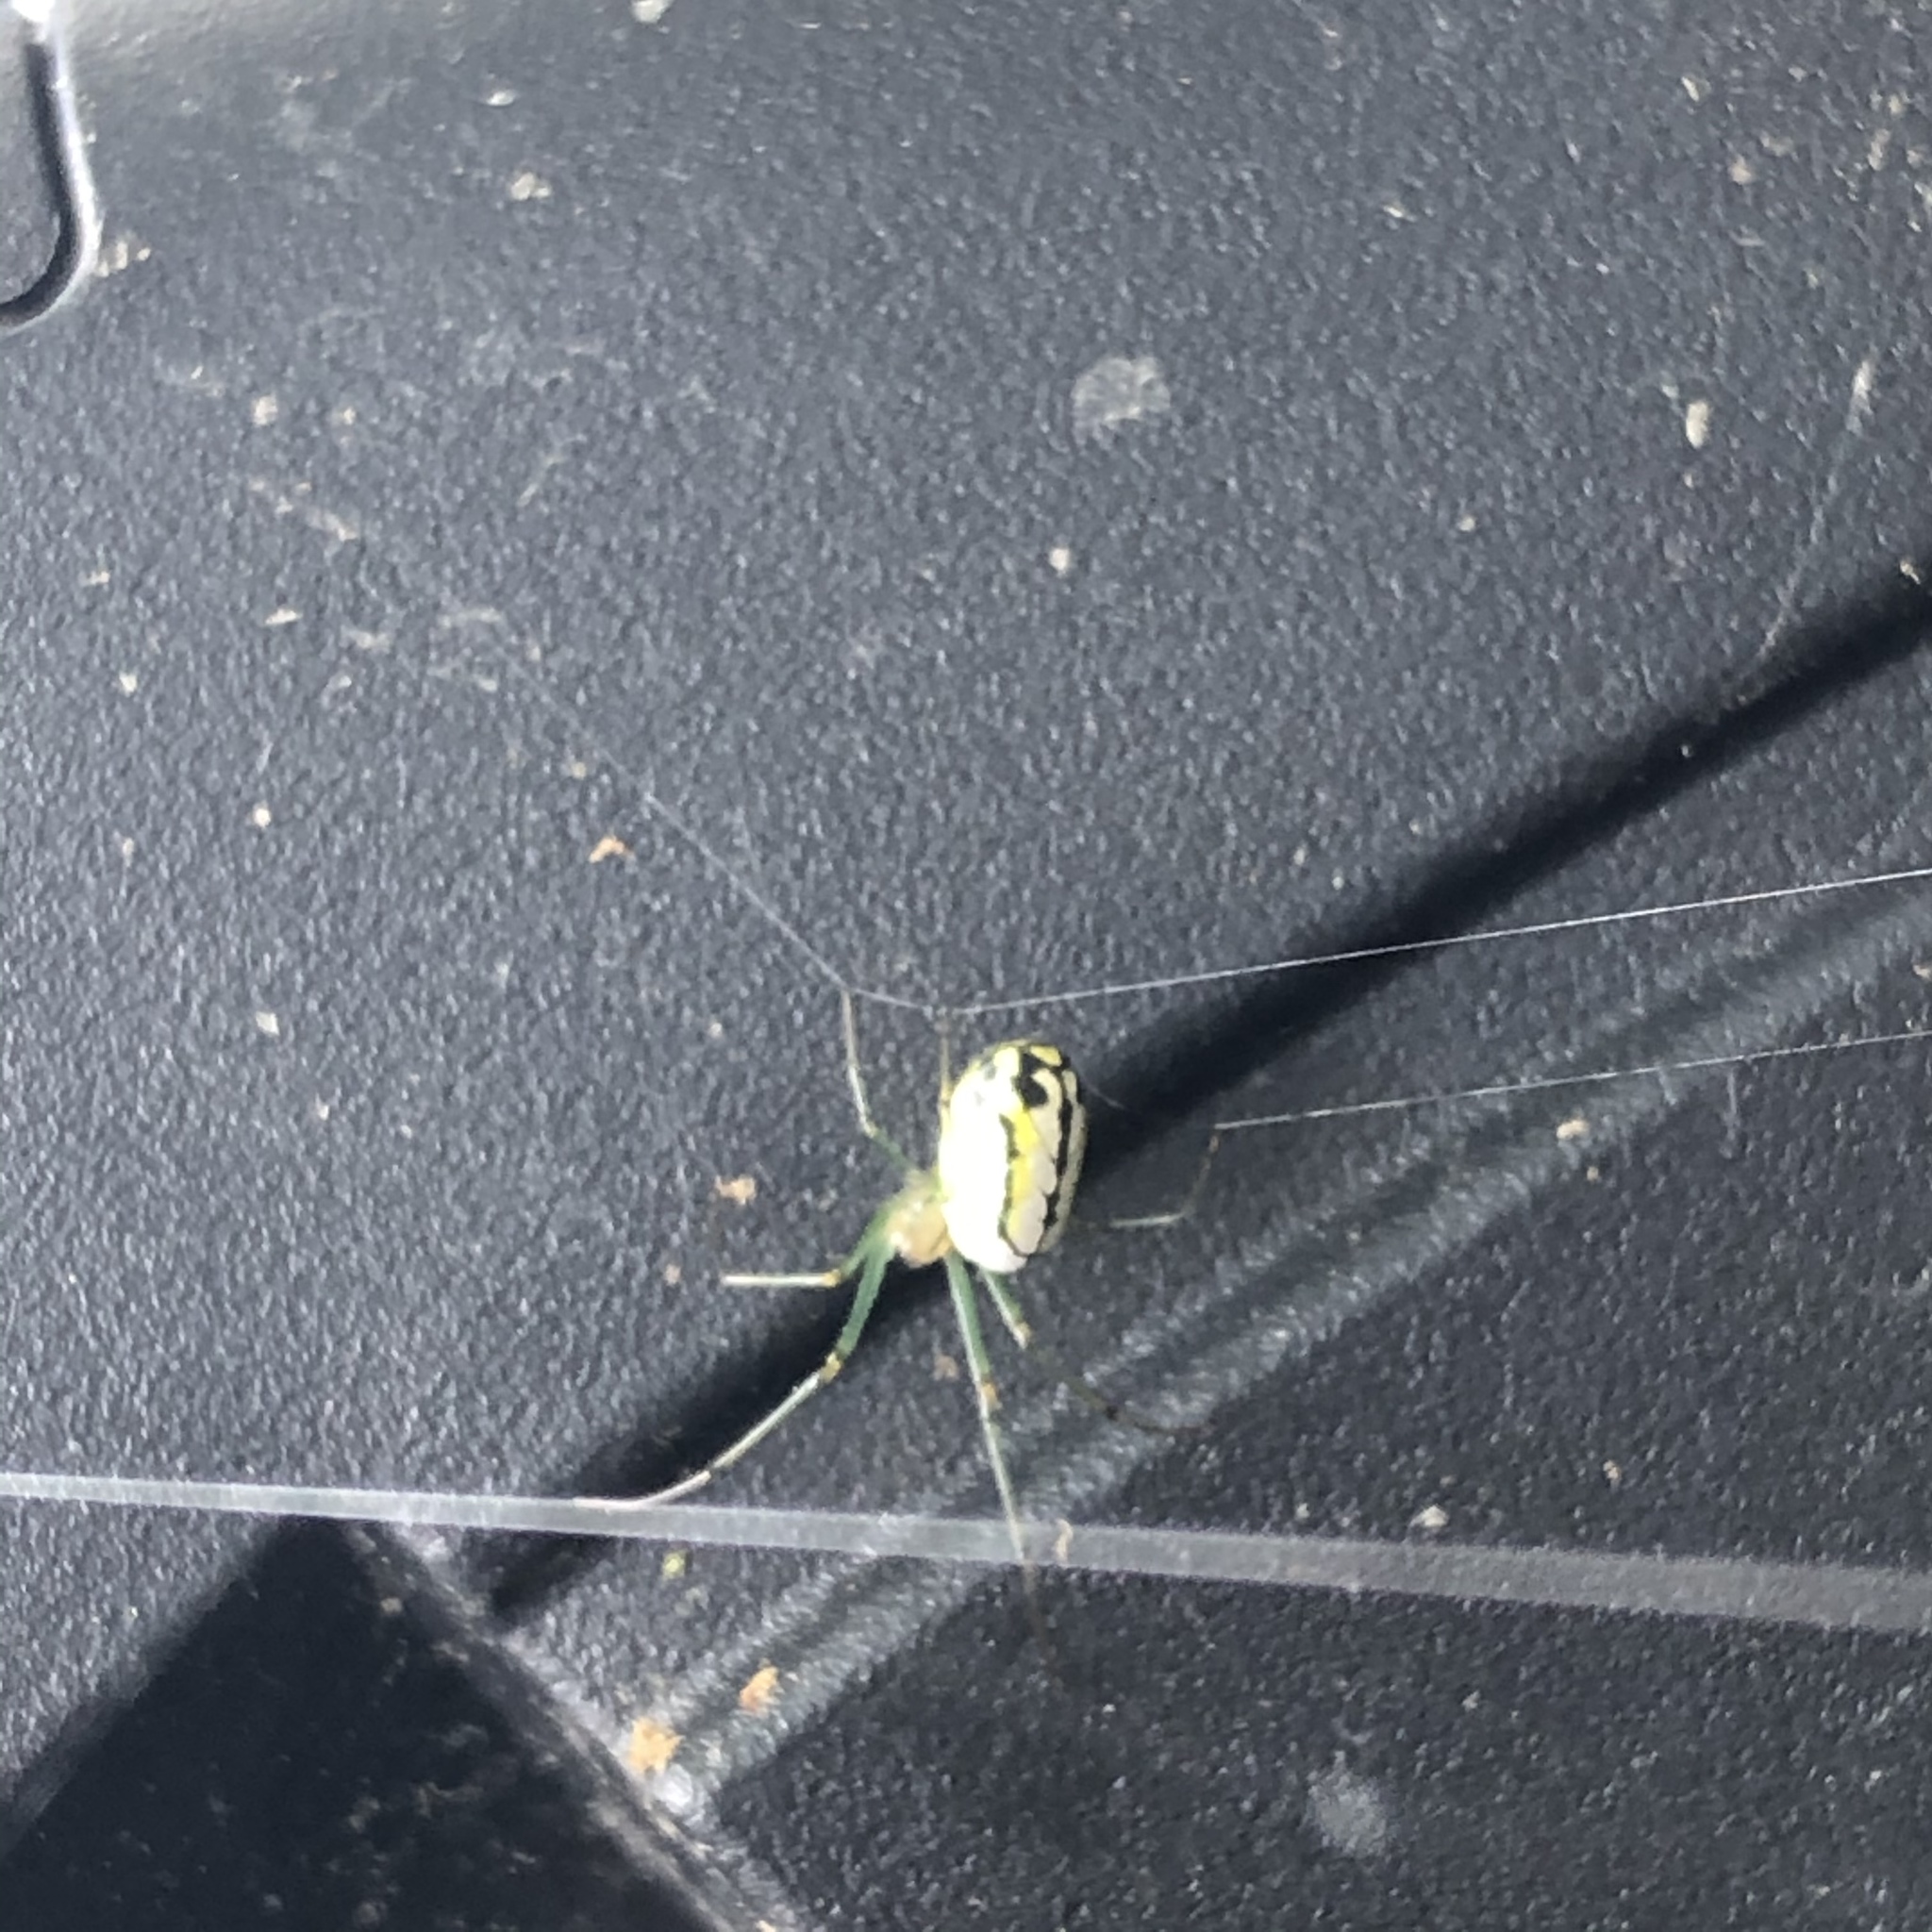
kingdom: Animalia
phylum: Arthropoda
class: Arachnida
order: Araneae
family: Tetragnathidae
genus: Leucauge
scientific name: Leucauge venusta
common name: Longjawed orb weavers
